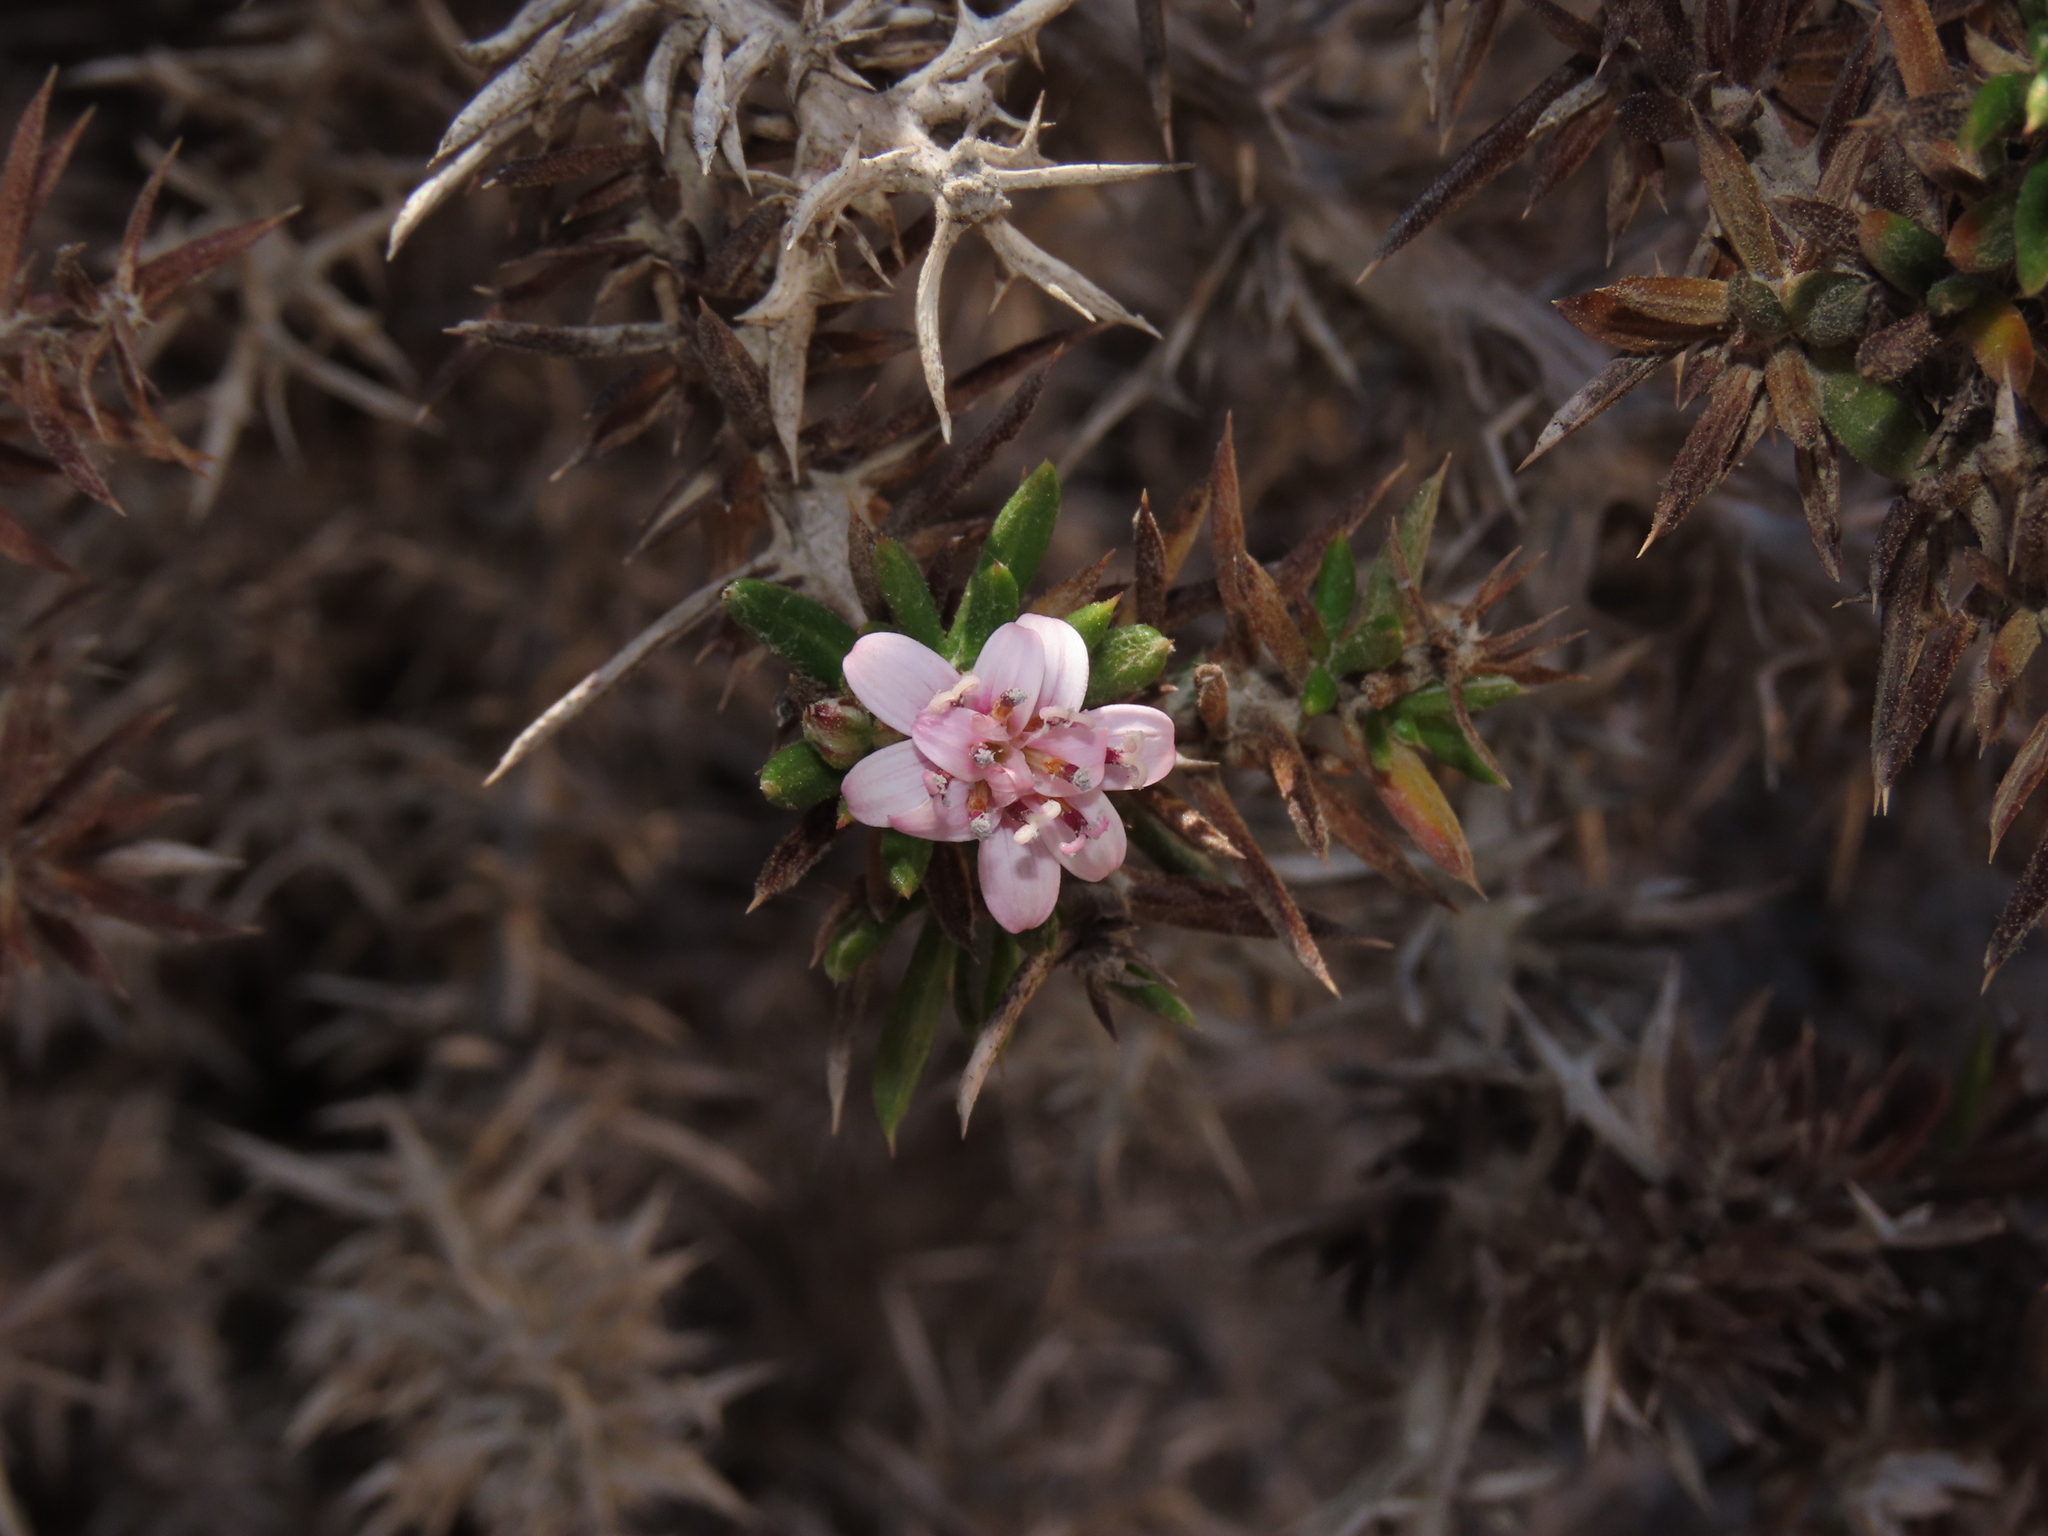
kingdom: Plantae
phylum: Tracheophyta
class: Magnoliopsida
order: Asterales
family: Asteraceae
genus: Oxyphyllum
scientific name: Oxyphyllum ulicinum
